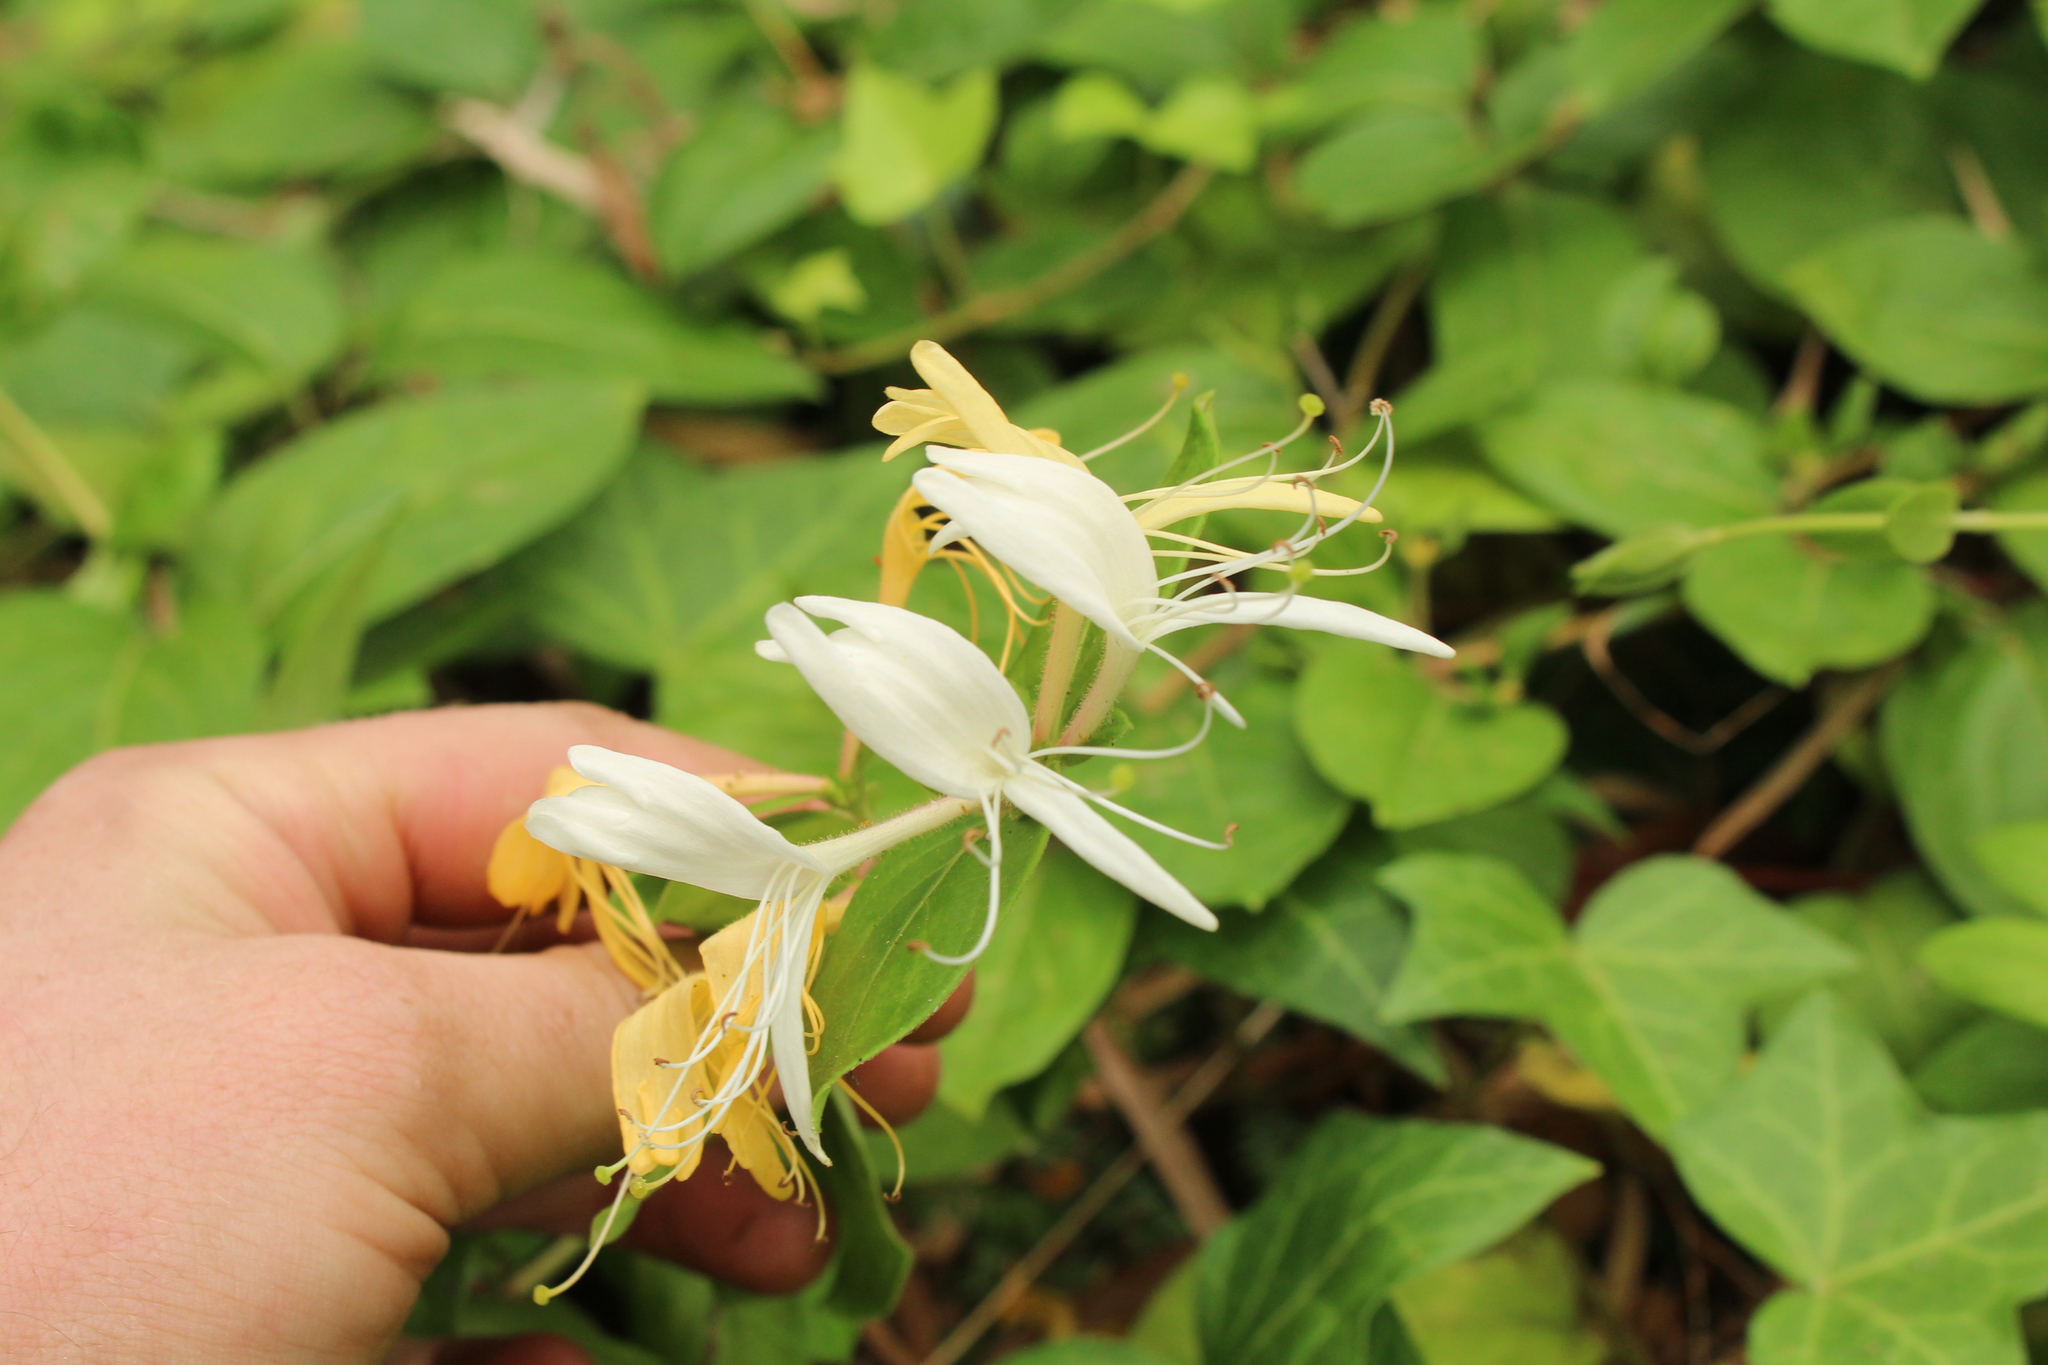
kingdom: Plantae
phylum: Tracheophyta
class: Magnoliopsida
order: Dipsacales
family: Caprifoliaceae
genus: Lonicera
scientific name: Lonicera japonica
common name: Japanese honeysuckle
